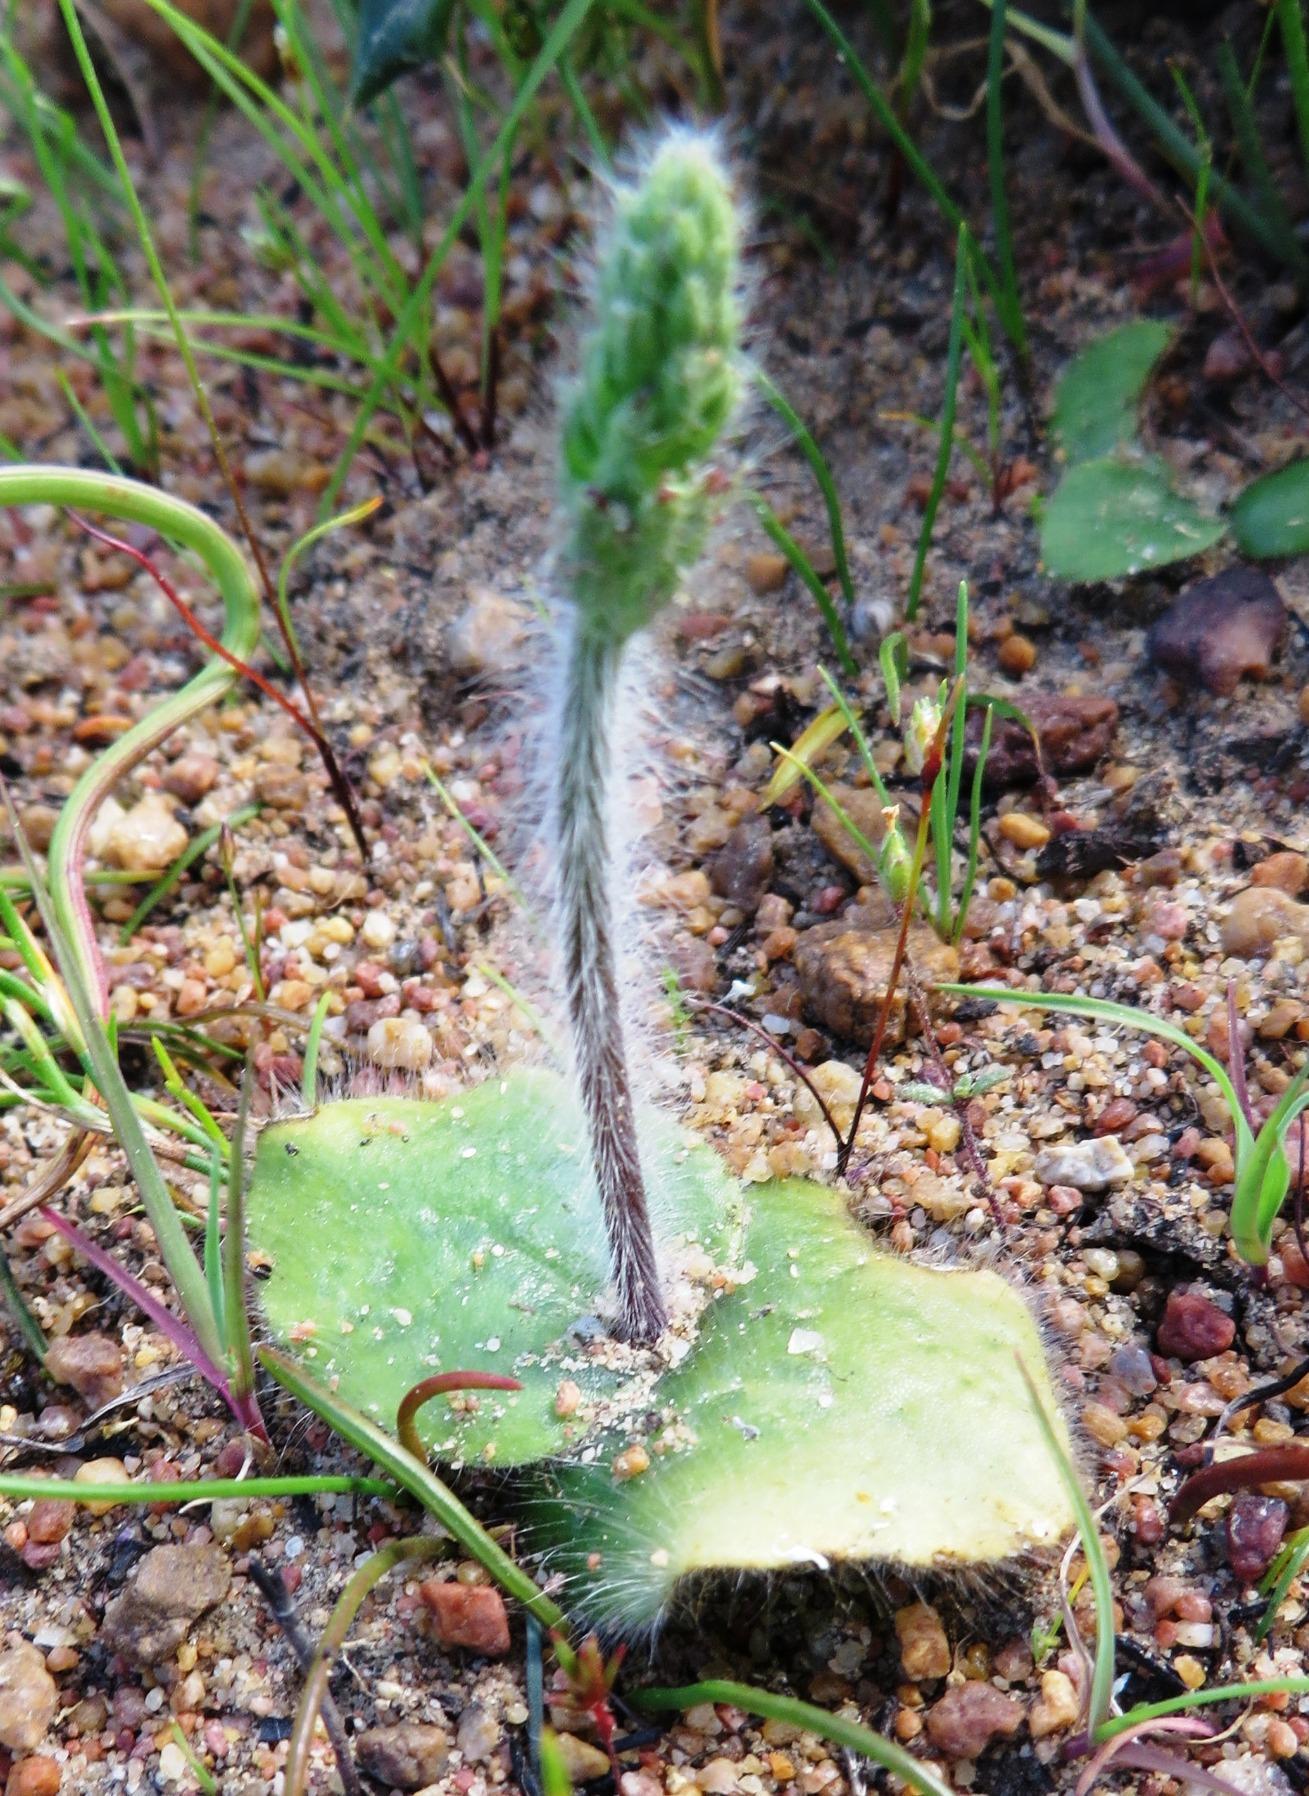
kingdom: Plantae
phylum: Tracheophyta
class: Liliopsida
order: Asparagales
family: Orchidaceae
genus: Holothrix
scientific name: Holothrix villosa
